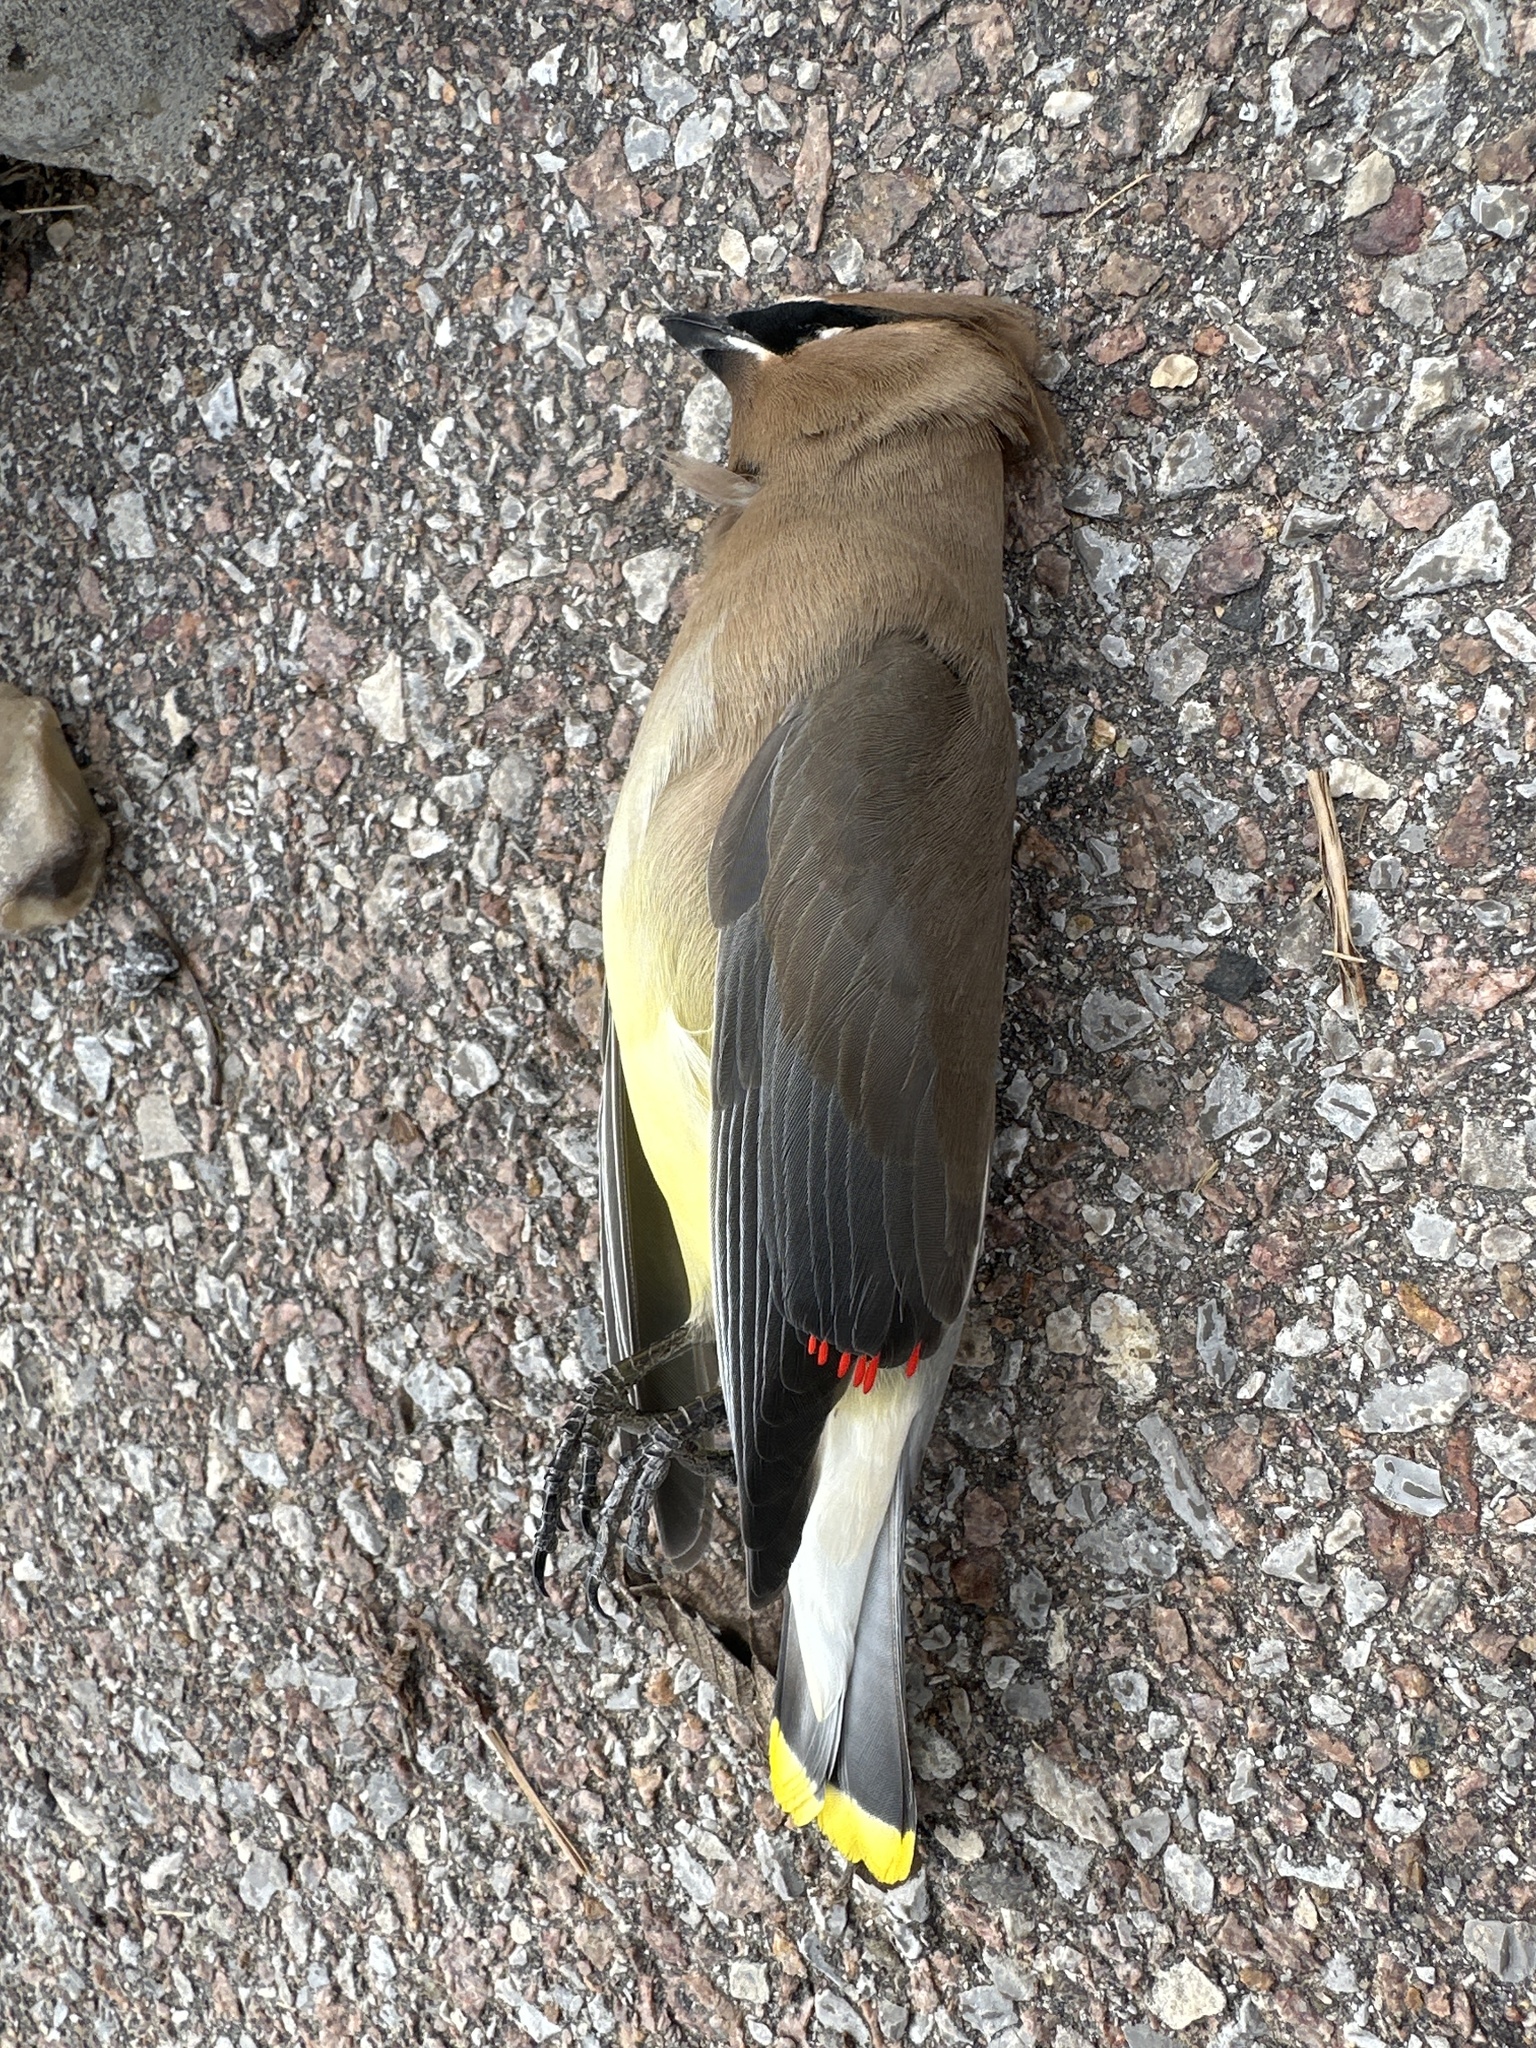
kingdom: Animalia
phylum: Chordata
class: Aves
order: Passeriformes
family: Bombycillidae
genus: Bombycilla
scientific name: Bombycilla cedrorum
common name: Cedar waxwing
